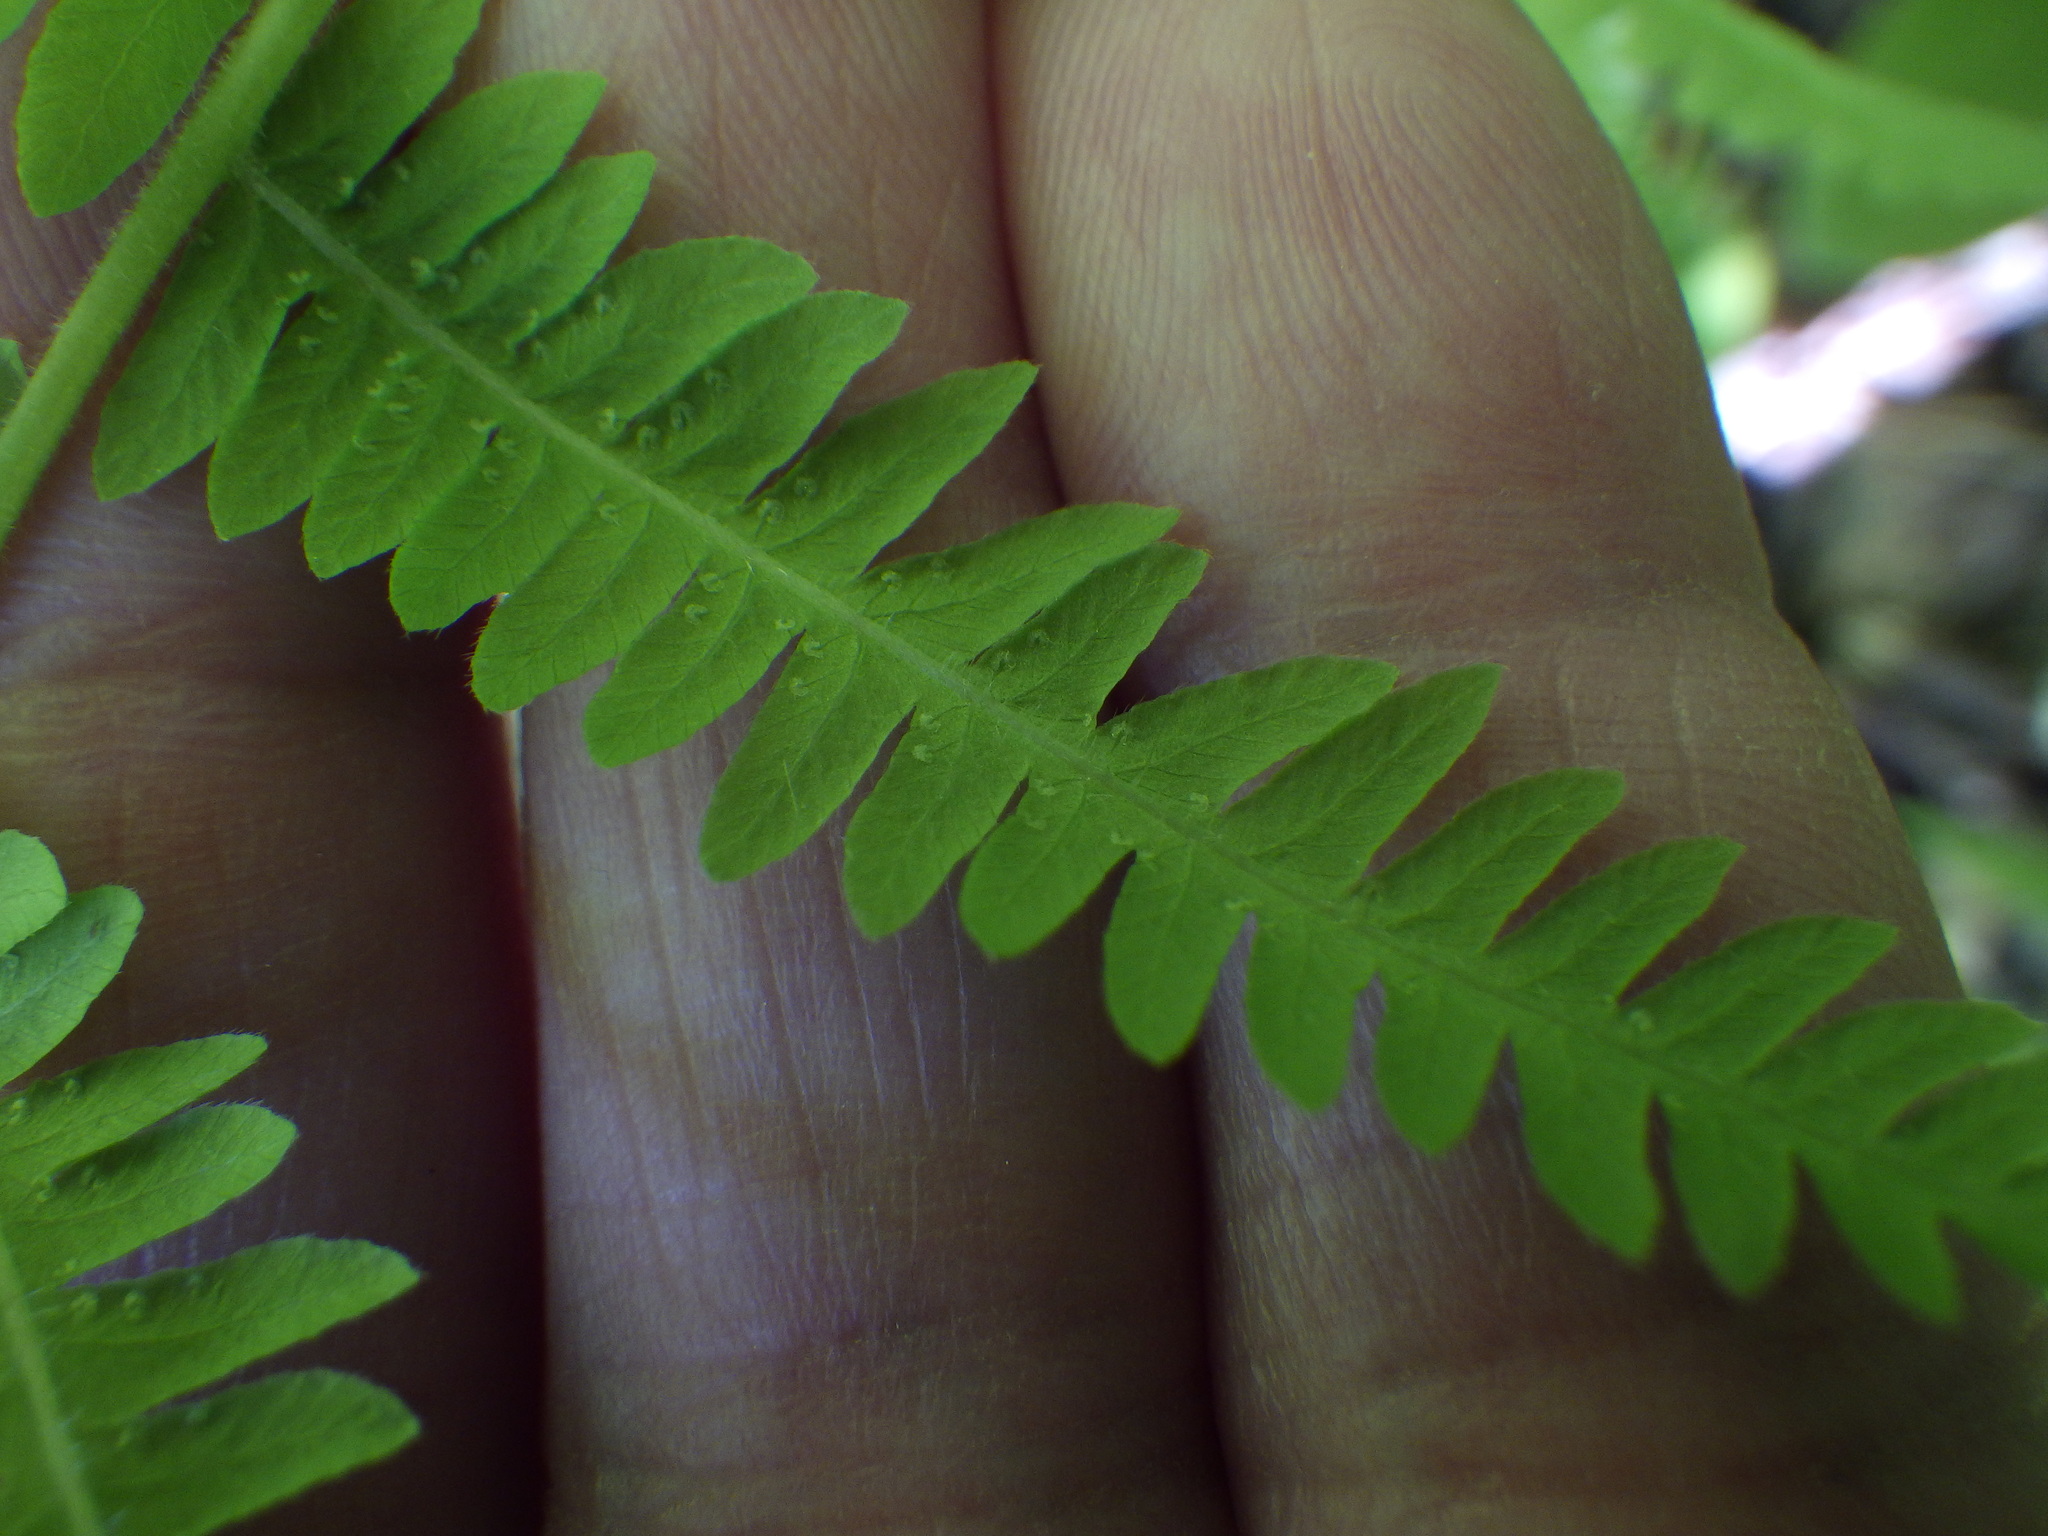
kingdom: Plantae
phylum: Tracheophyta
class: Polypodiopsida
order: Polypodiales
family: Thelypteridaceae
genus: Amauropelta
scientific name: Amauropelta noveboracensis
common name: New york fern
